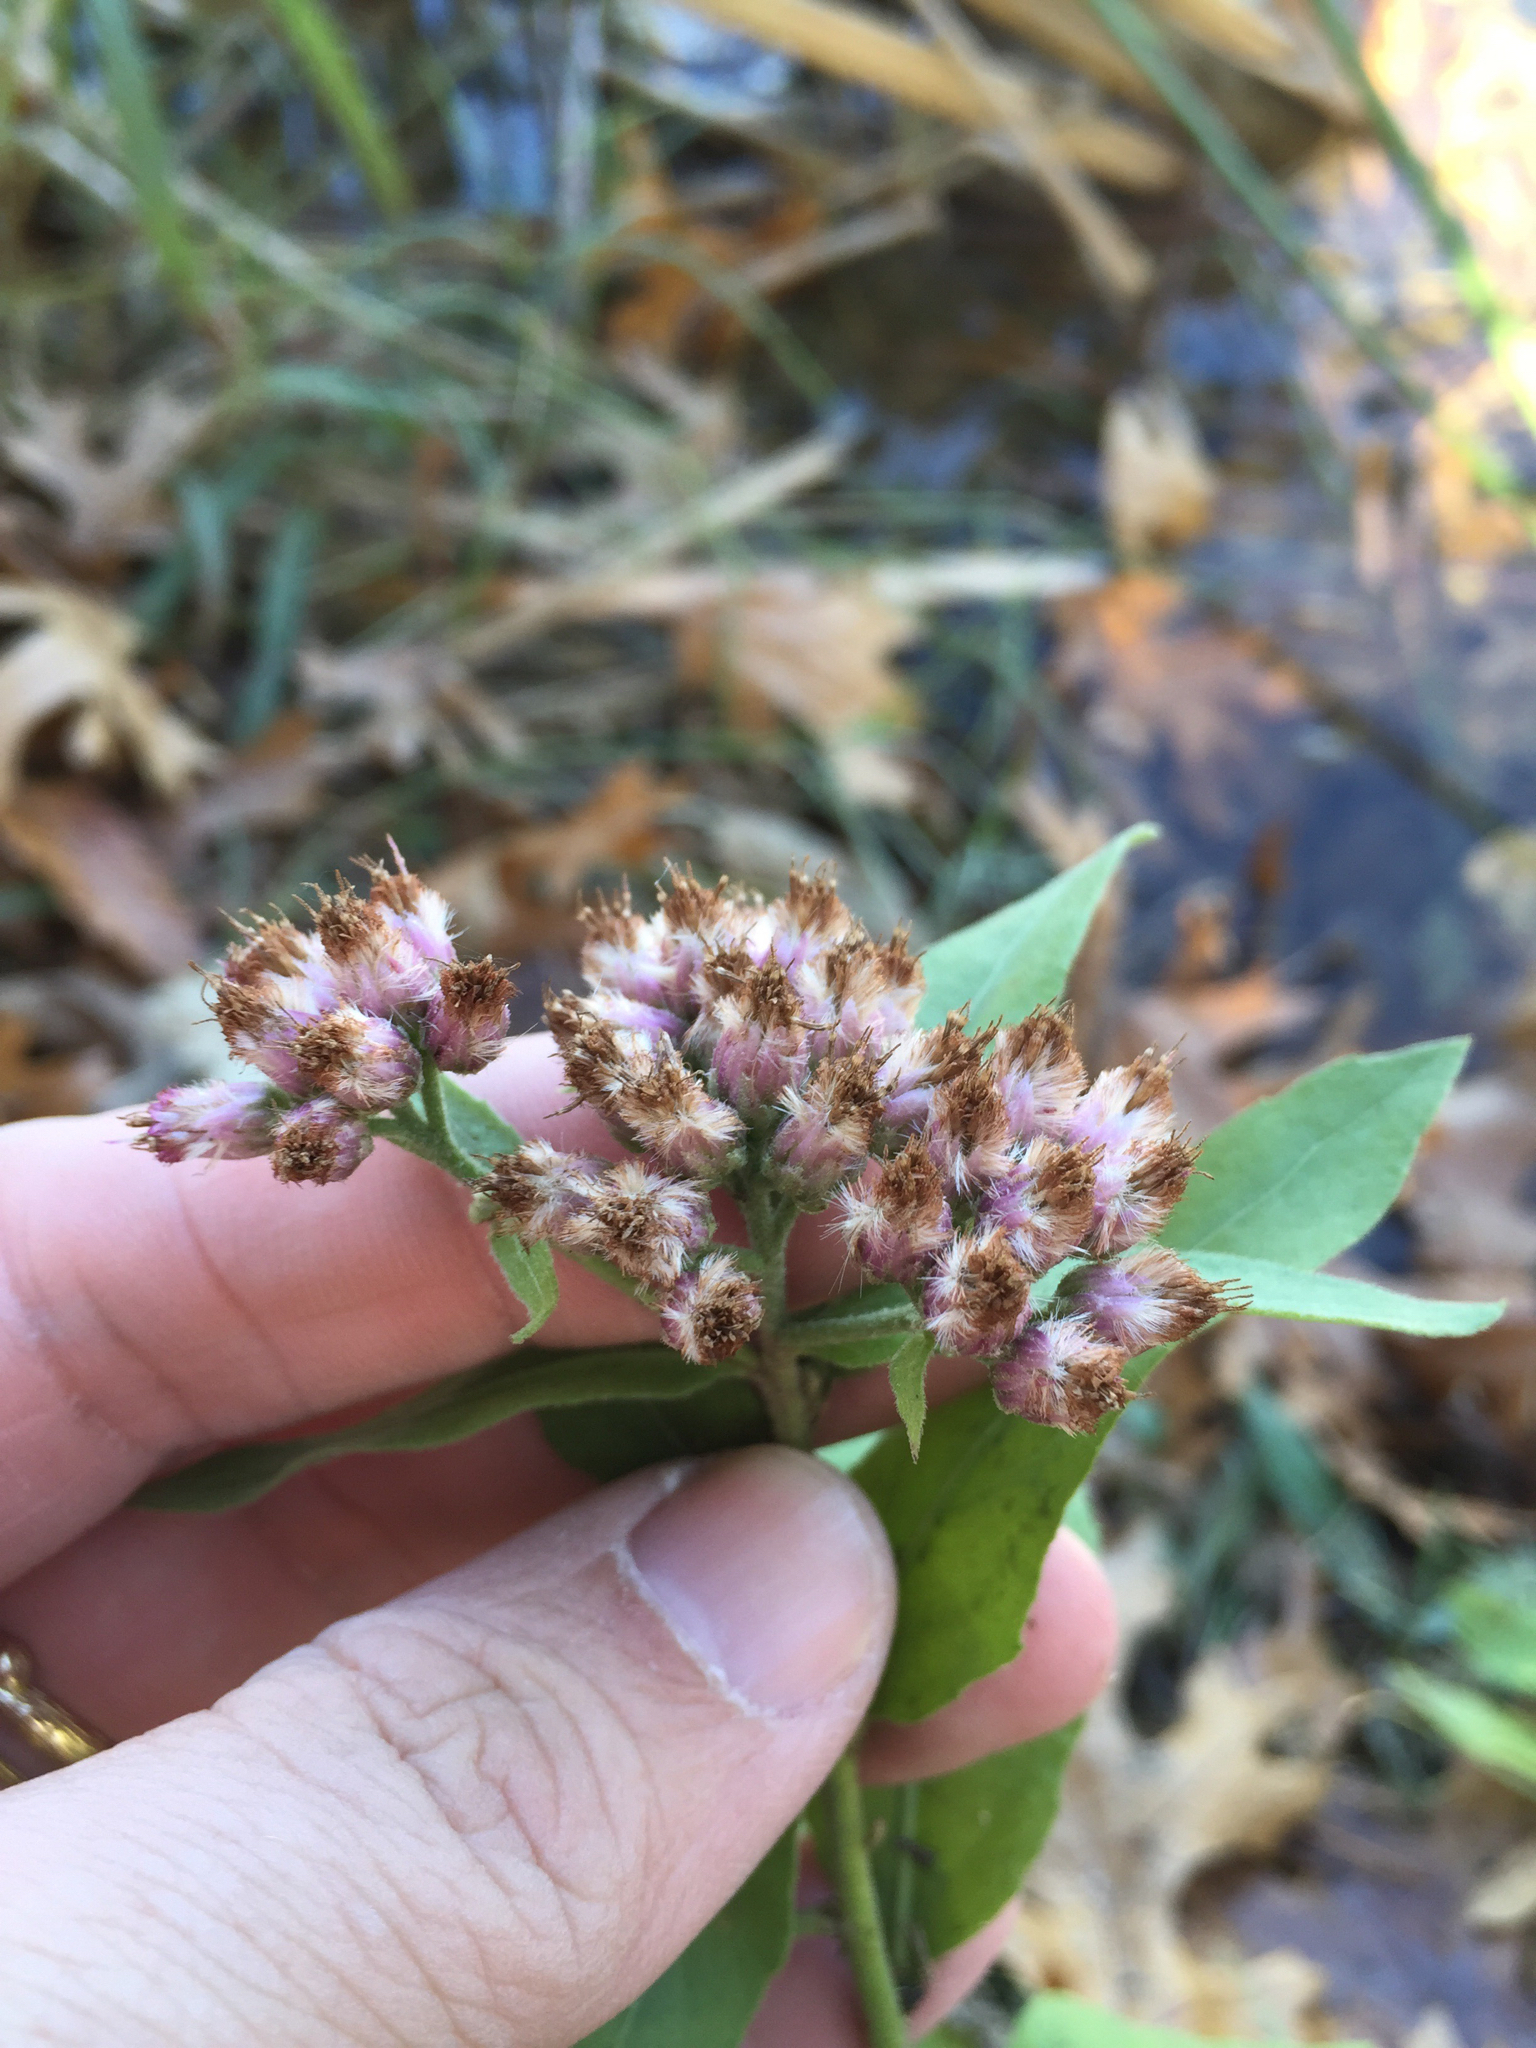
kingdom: Plantae
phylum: Tracheophyta
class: Magnoliopsida
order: Asterales
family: Asteraceae
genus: Pluchea
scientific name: Pluchea odorata
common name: Saltmarsh fleabane
